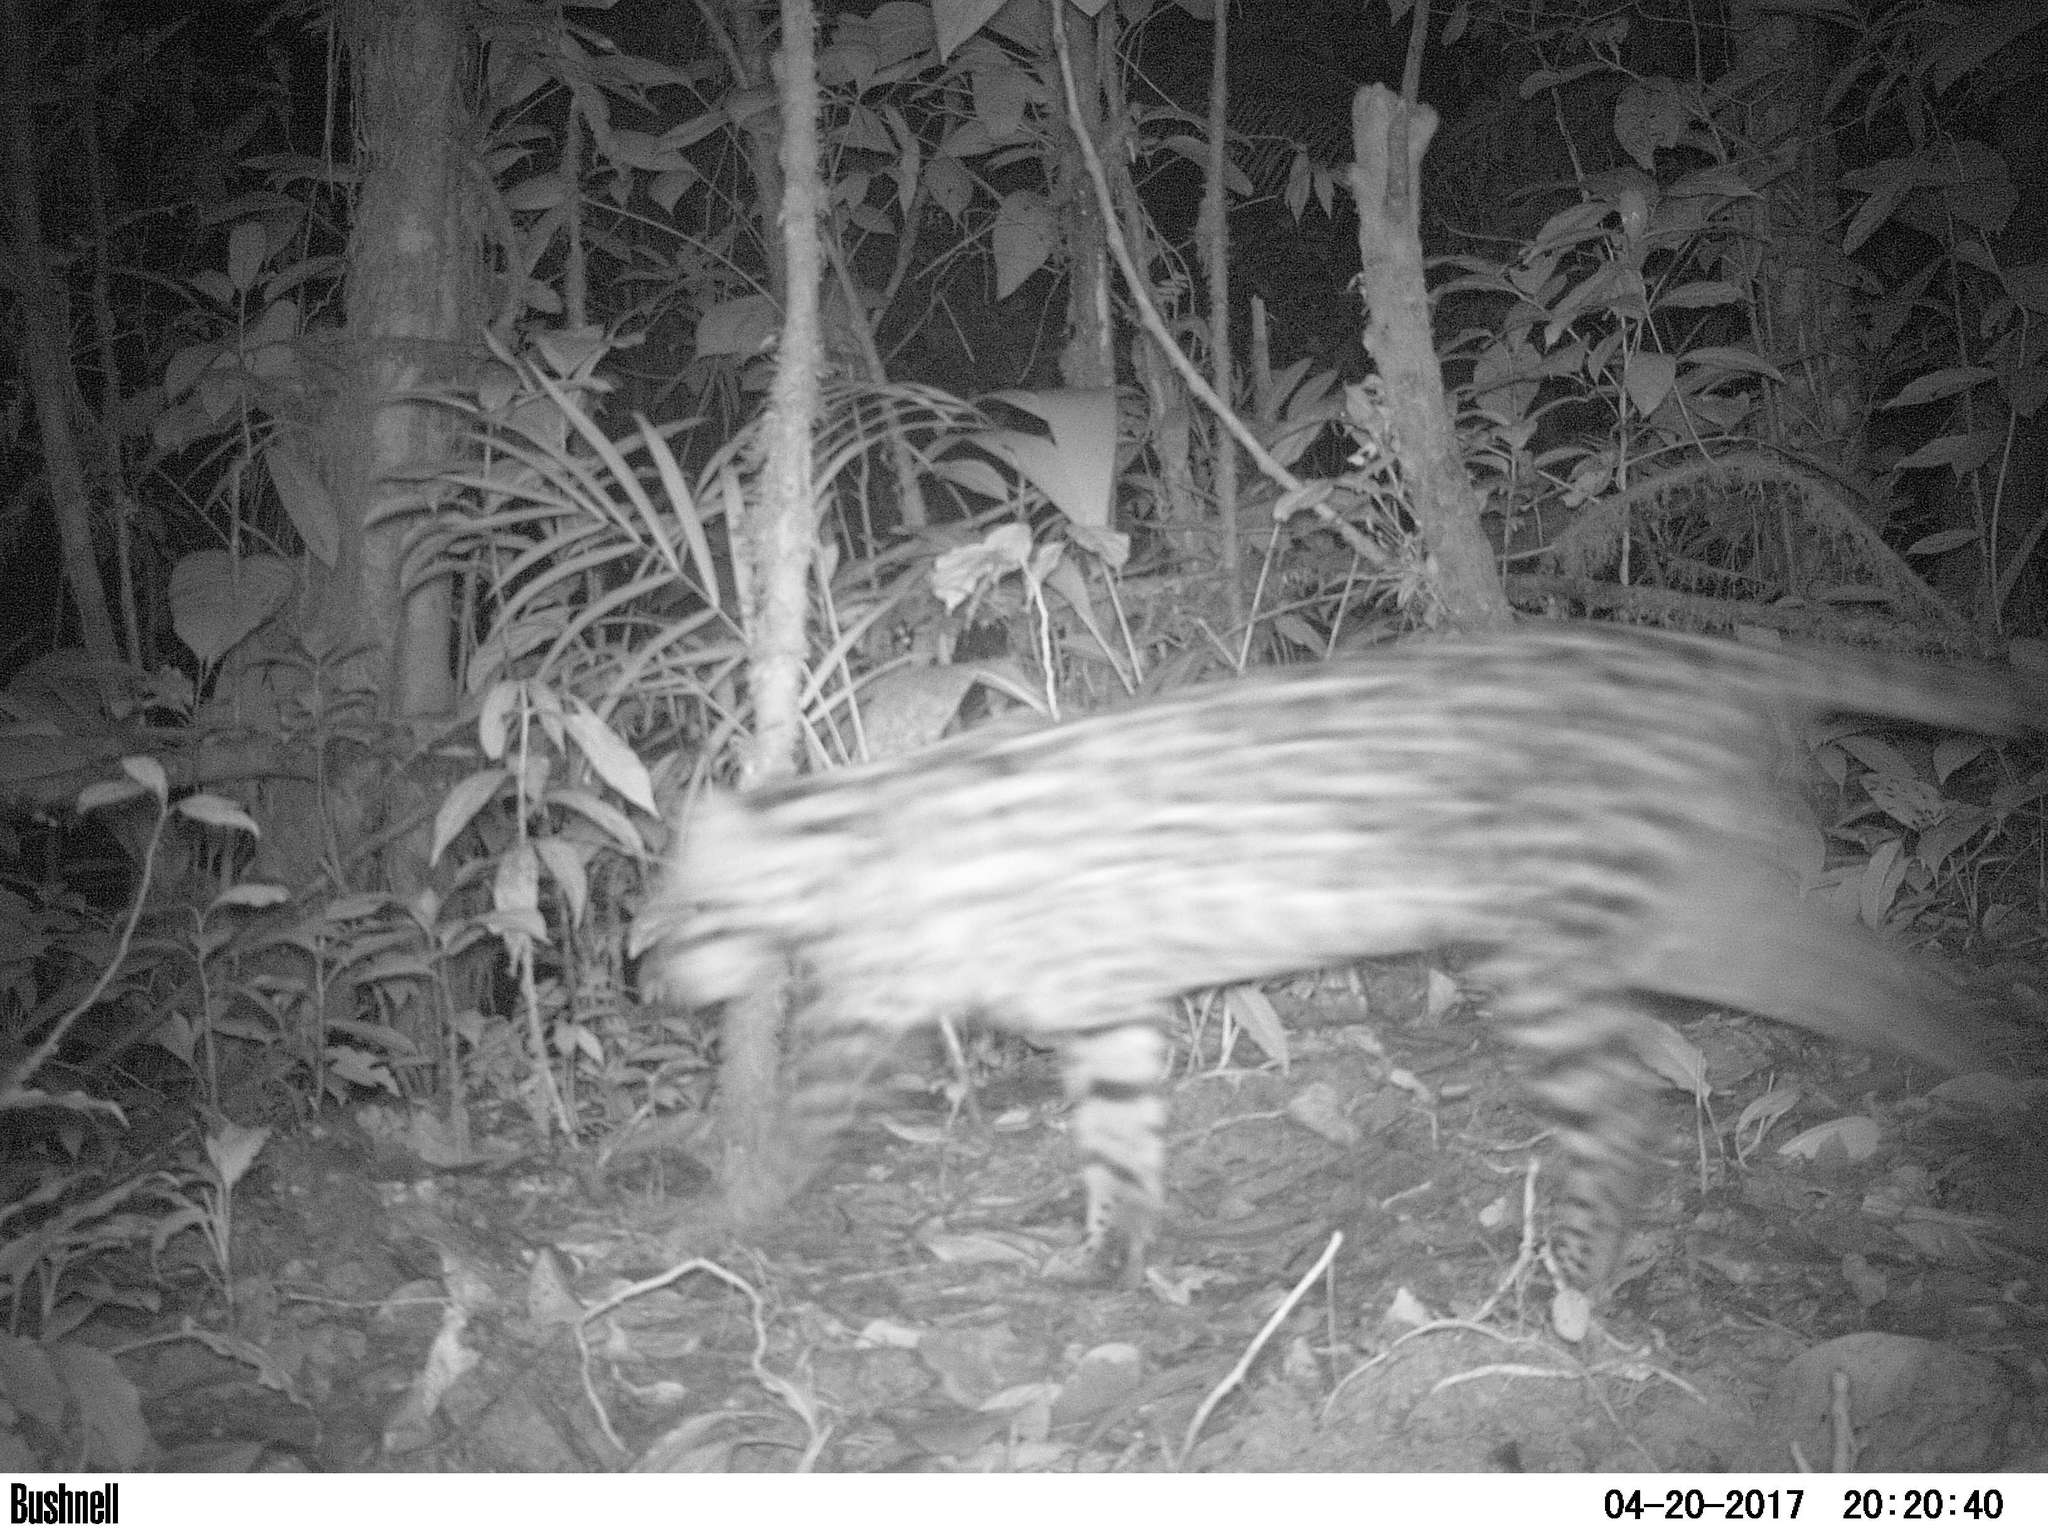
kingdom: Animalia
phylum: Chordata
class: Mammalia
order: Carnivora
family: Felidae
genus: Leopardus
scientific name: Leopardus pardalis
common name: Ocelot
